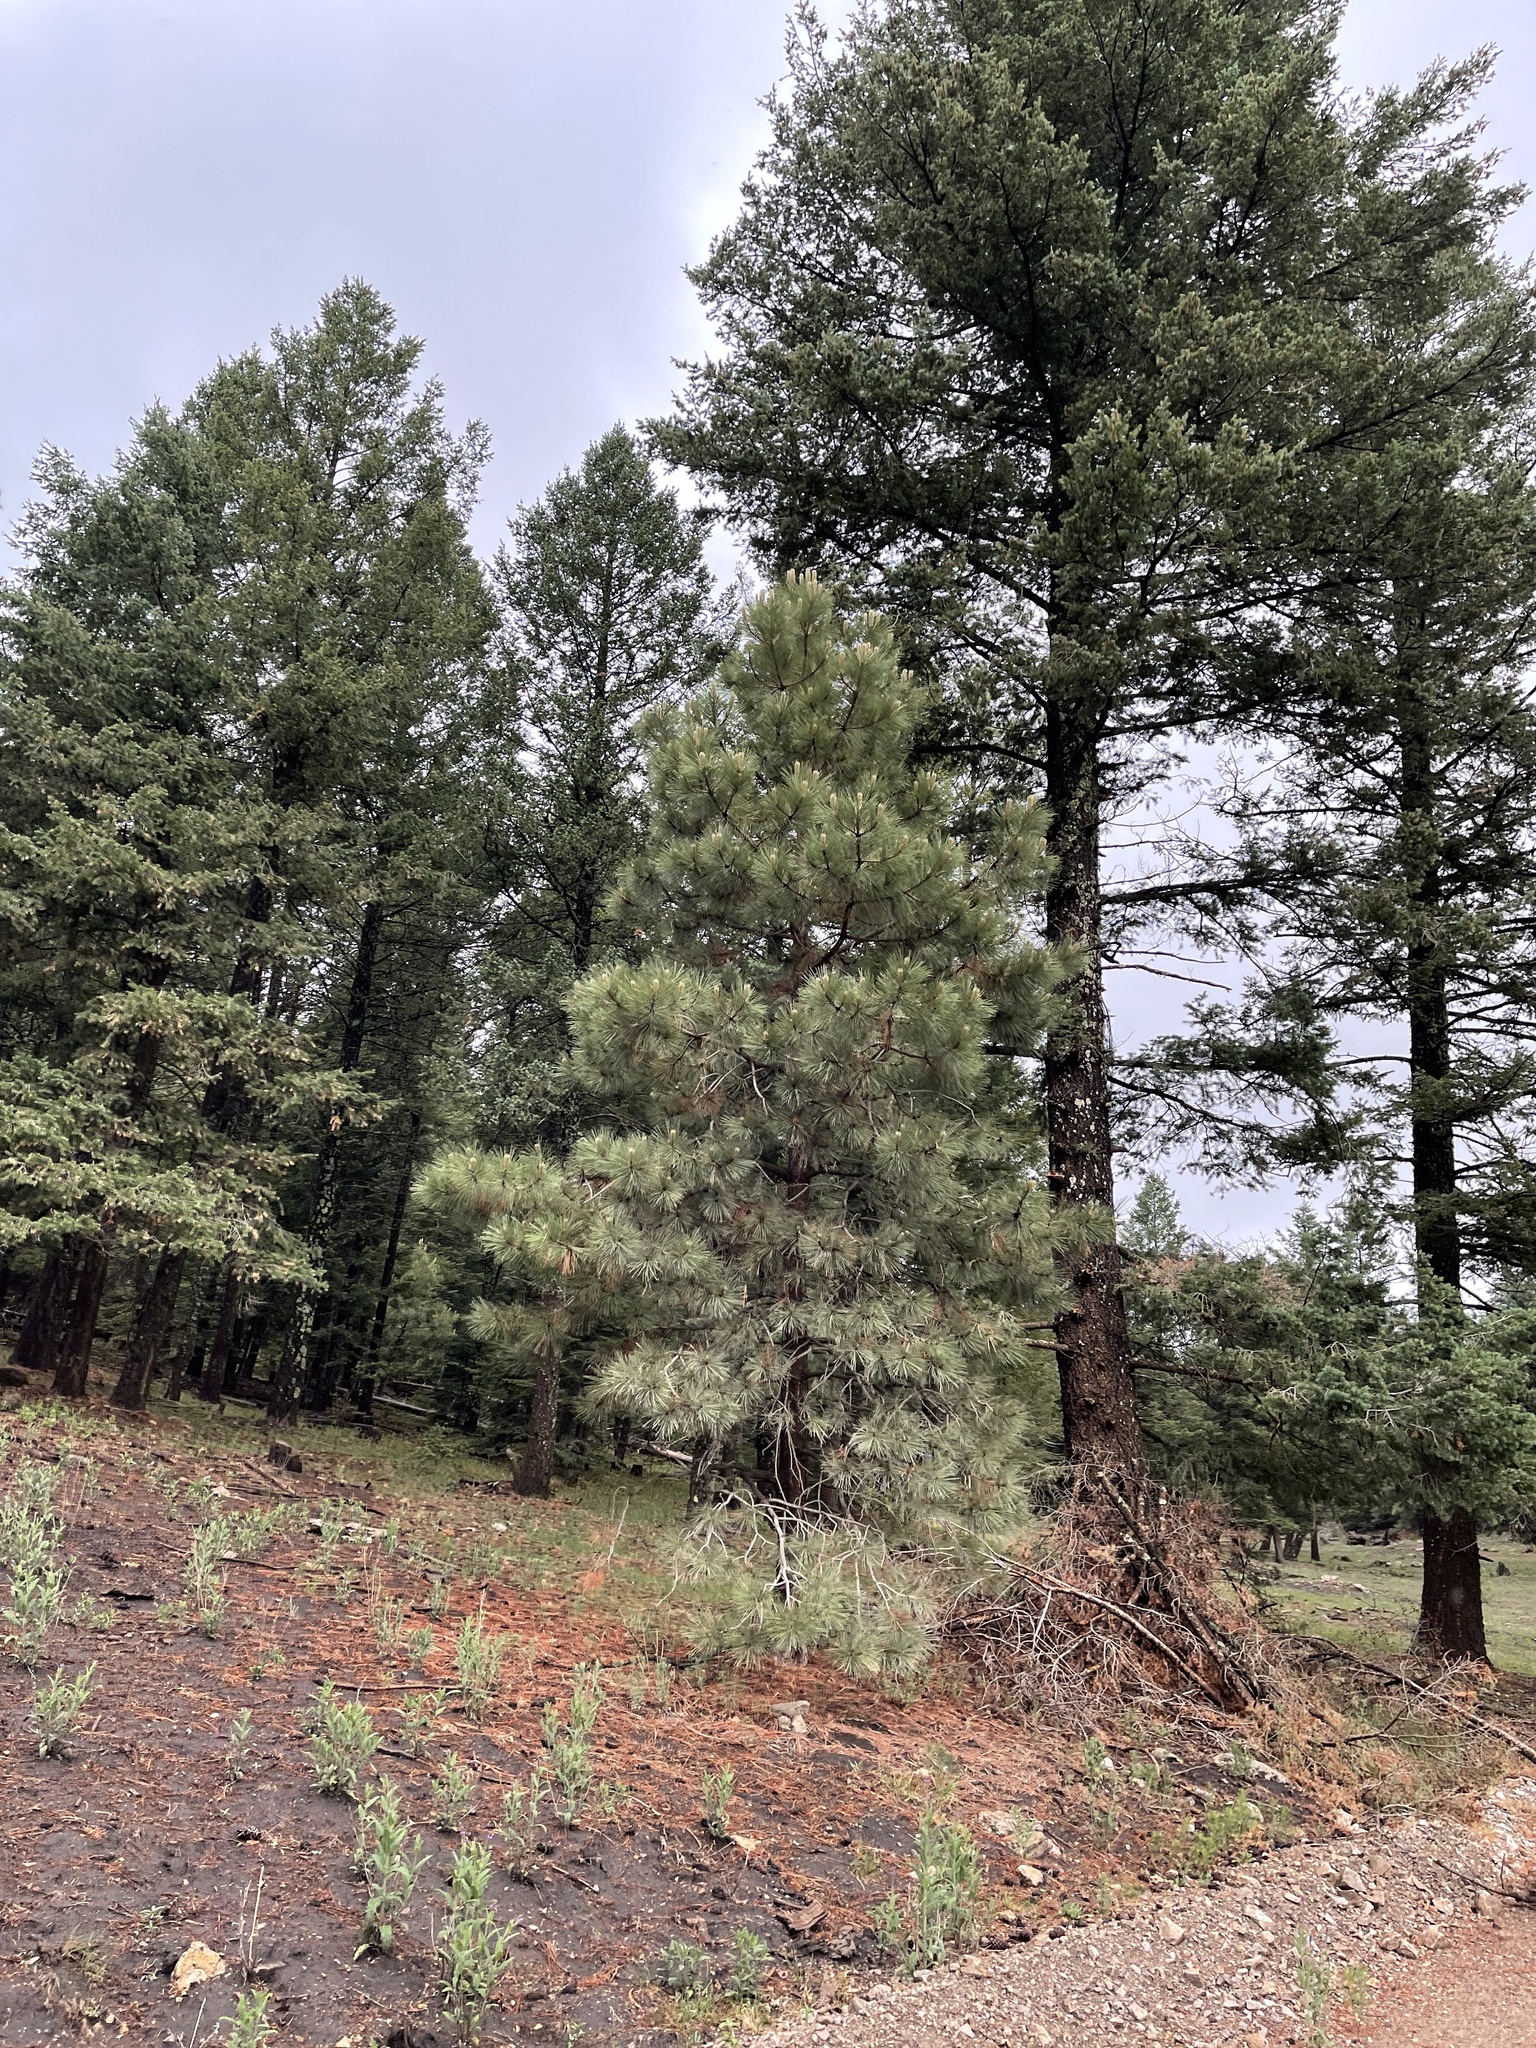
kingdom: Plantae
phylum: Tracheophyta
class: Pinopsida
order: Pinales
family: Pinaceae
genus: Pinus
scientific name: Pinus ponderosa
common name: Western yellow-pine
